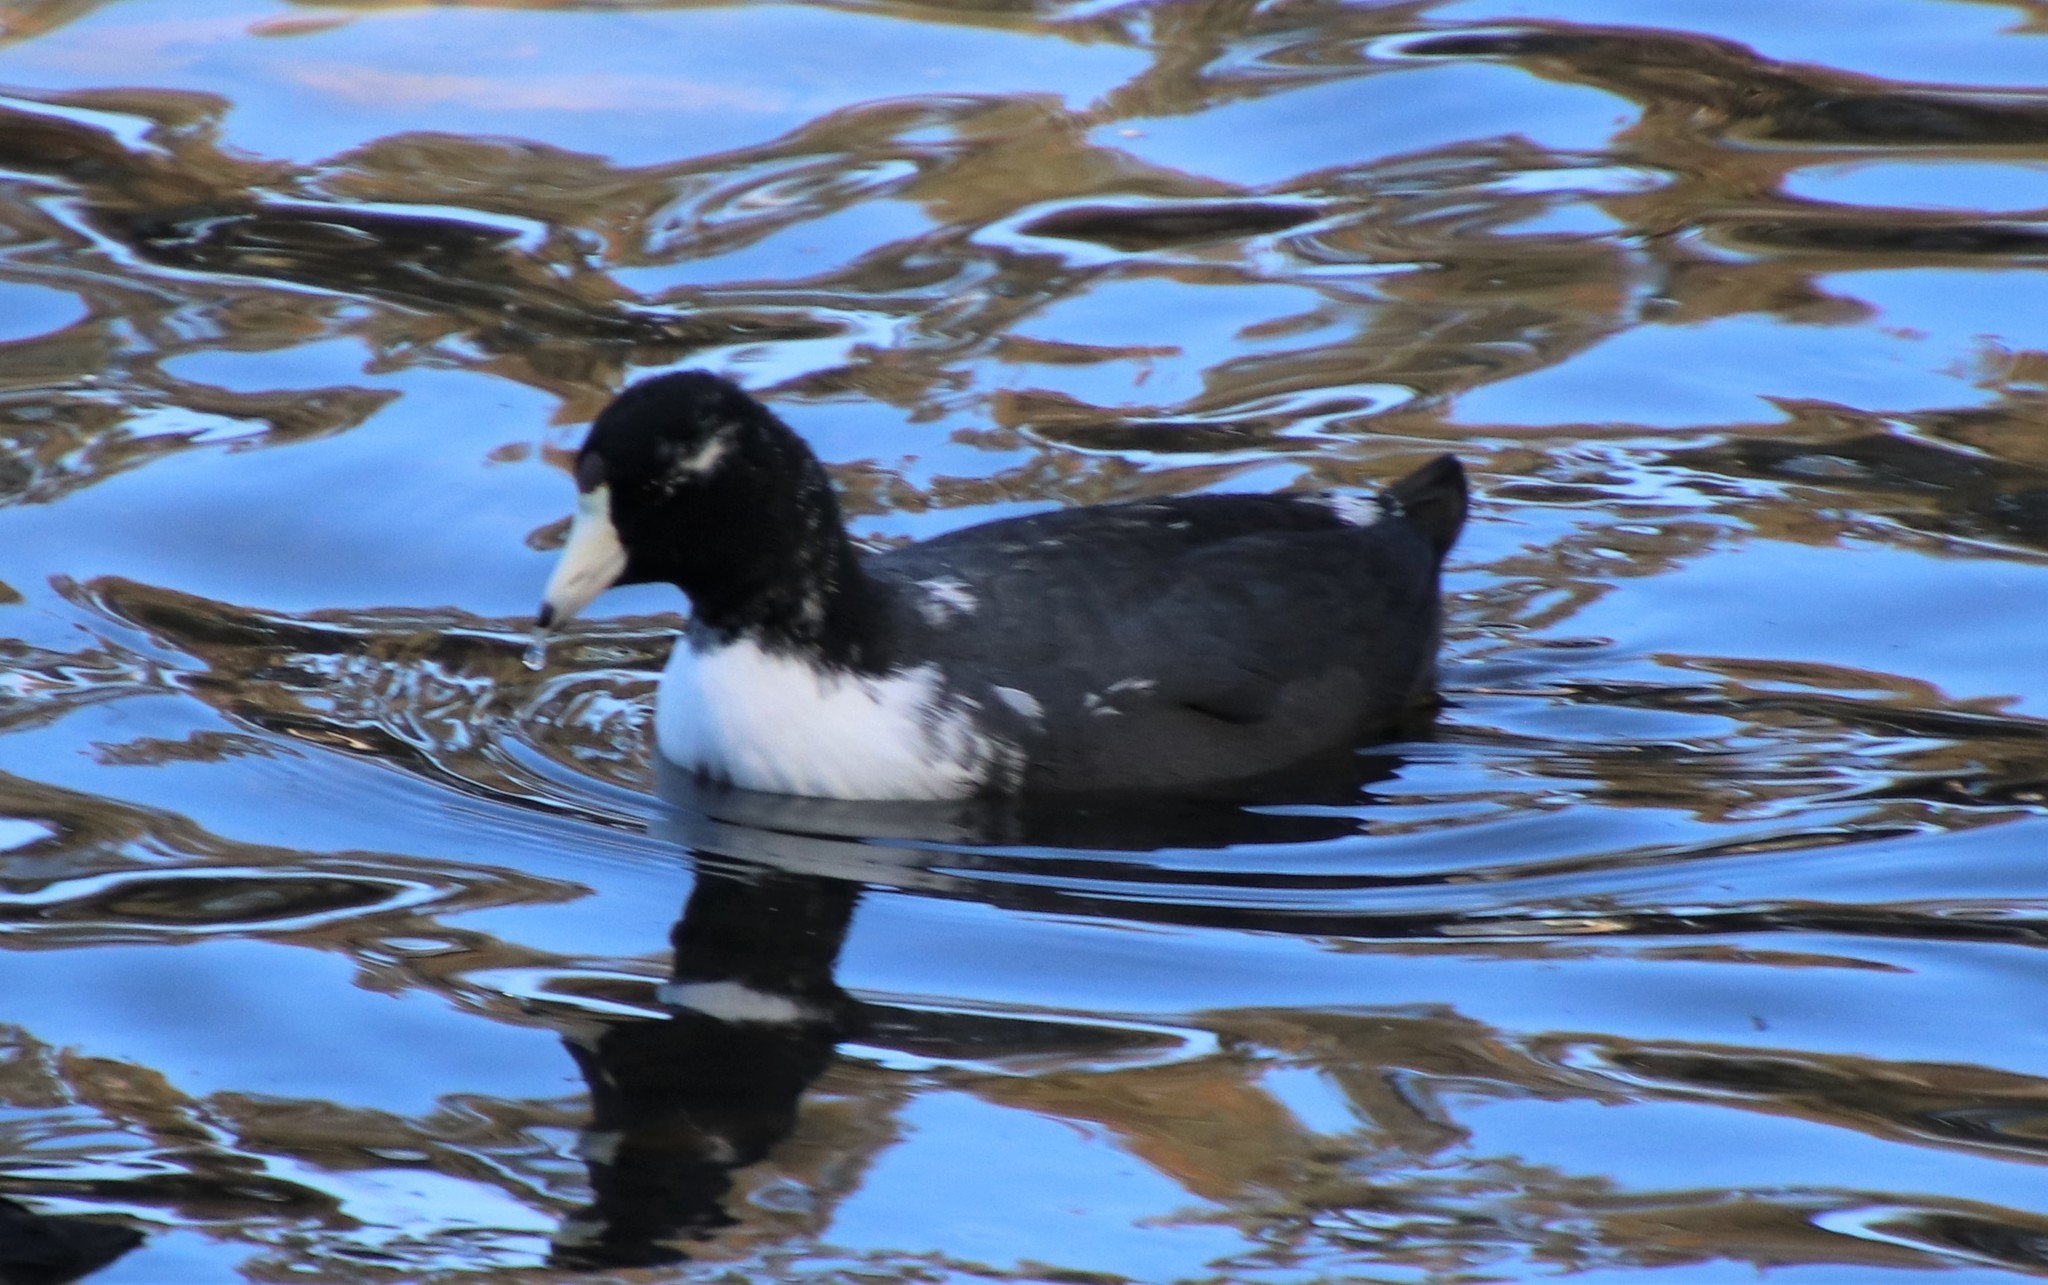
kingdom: Animalia
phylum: Chordata
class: Aves
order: Gruiformes
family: Rallidae
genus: Fulica
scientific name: Fulica americana
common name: American coot
